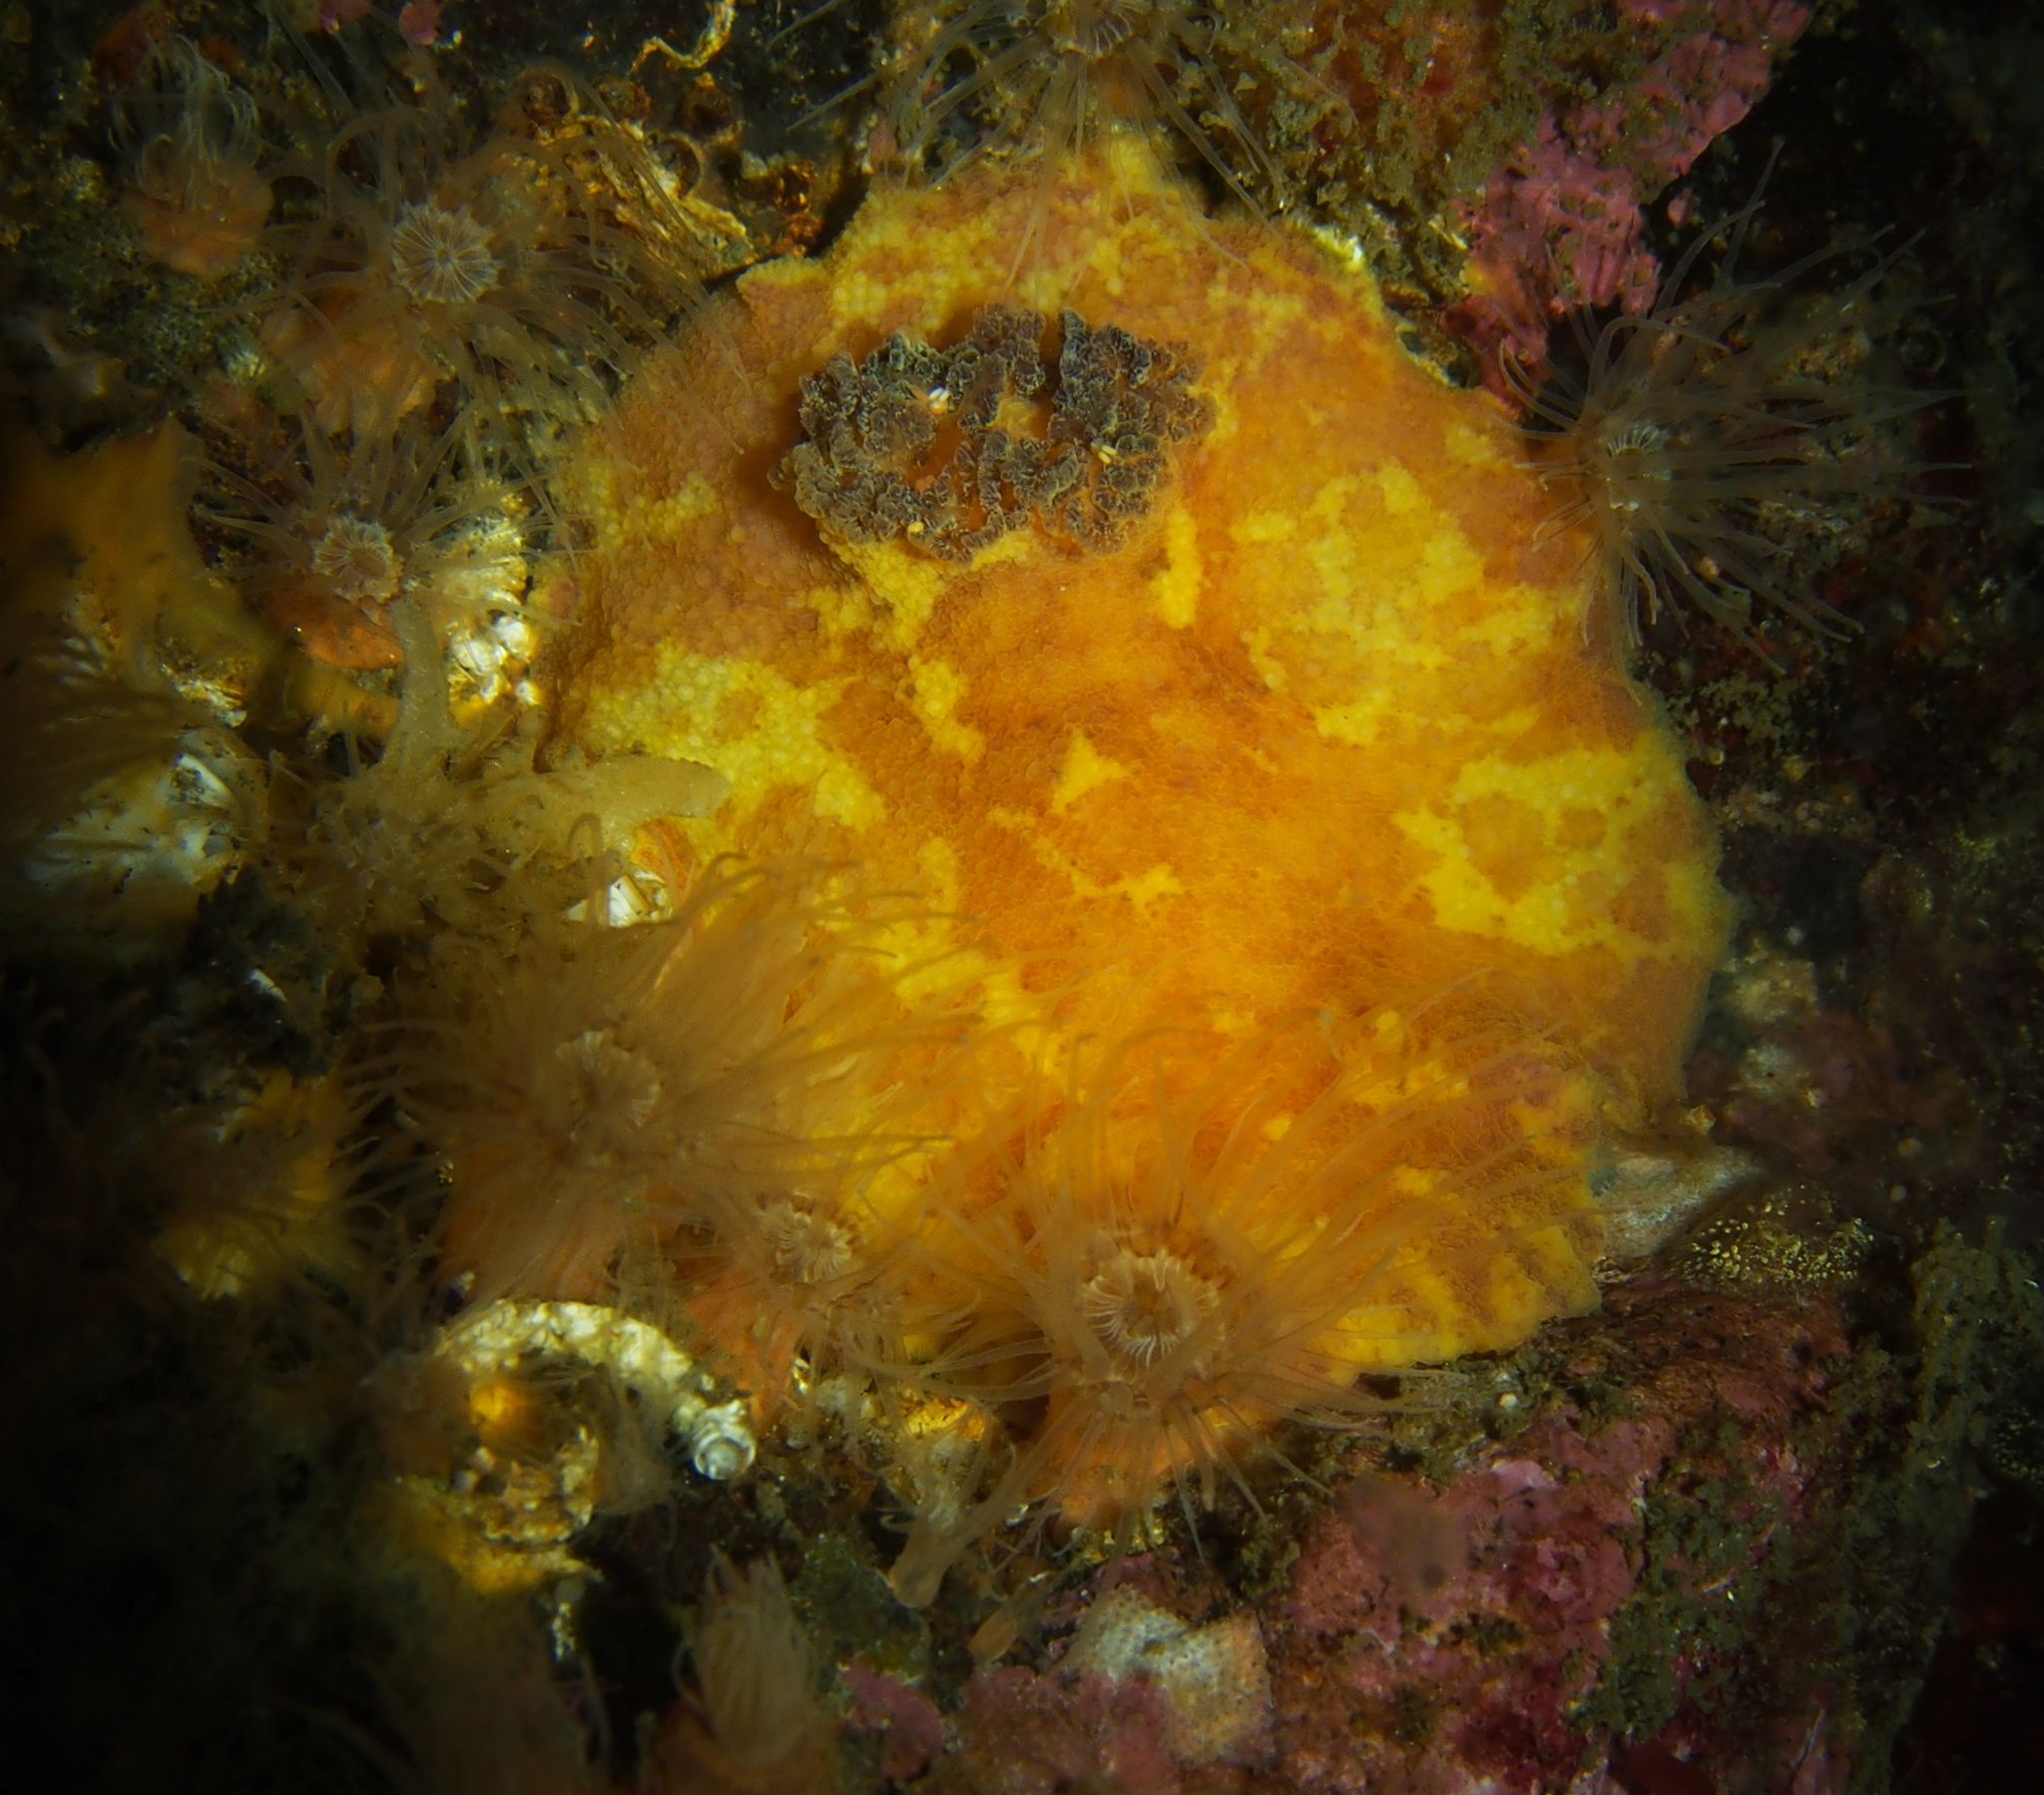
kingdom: Animalia
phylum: Mollusca
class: Gastropoda
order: Nudibranchia
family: Dorididae
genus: Doris
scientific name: Doris pseudoargus
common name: Sea lemon
